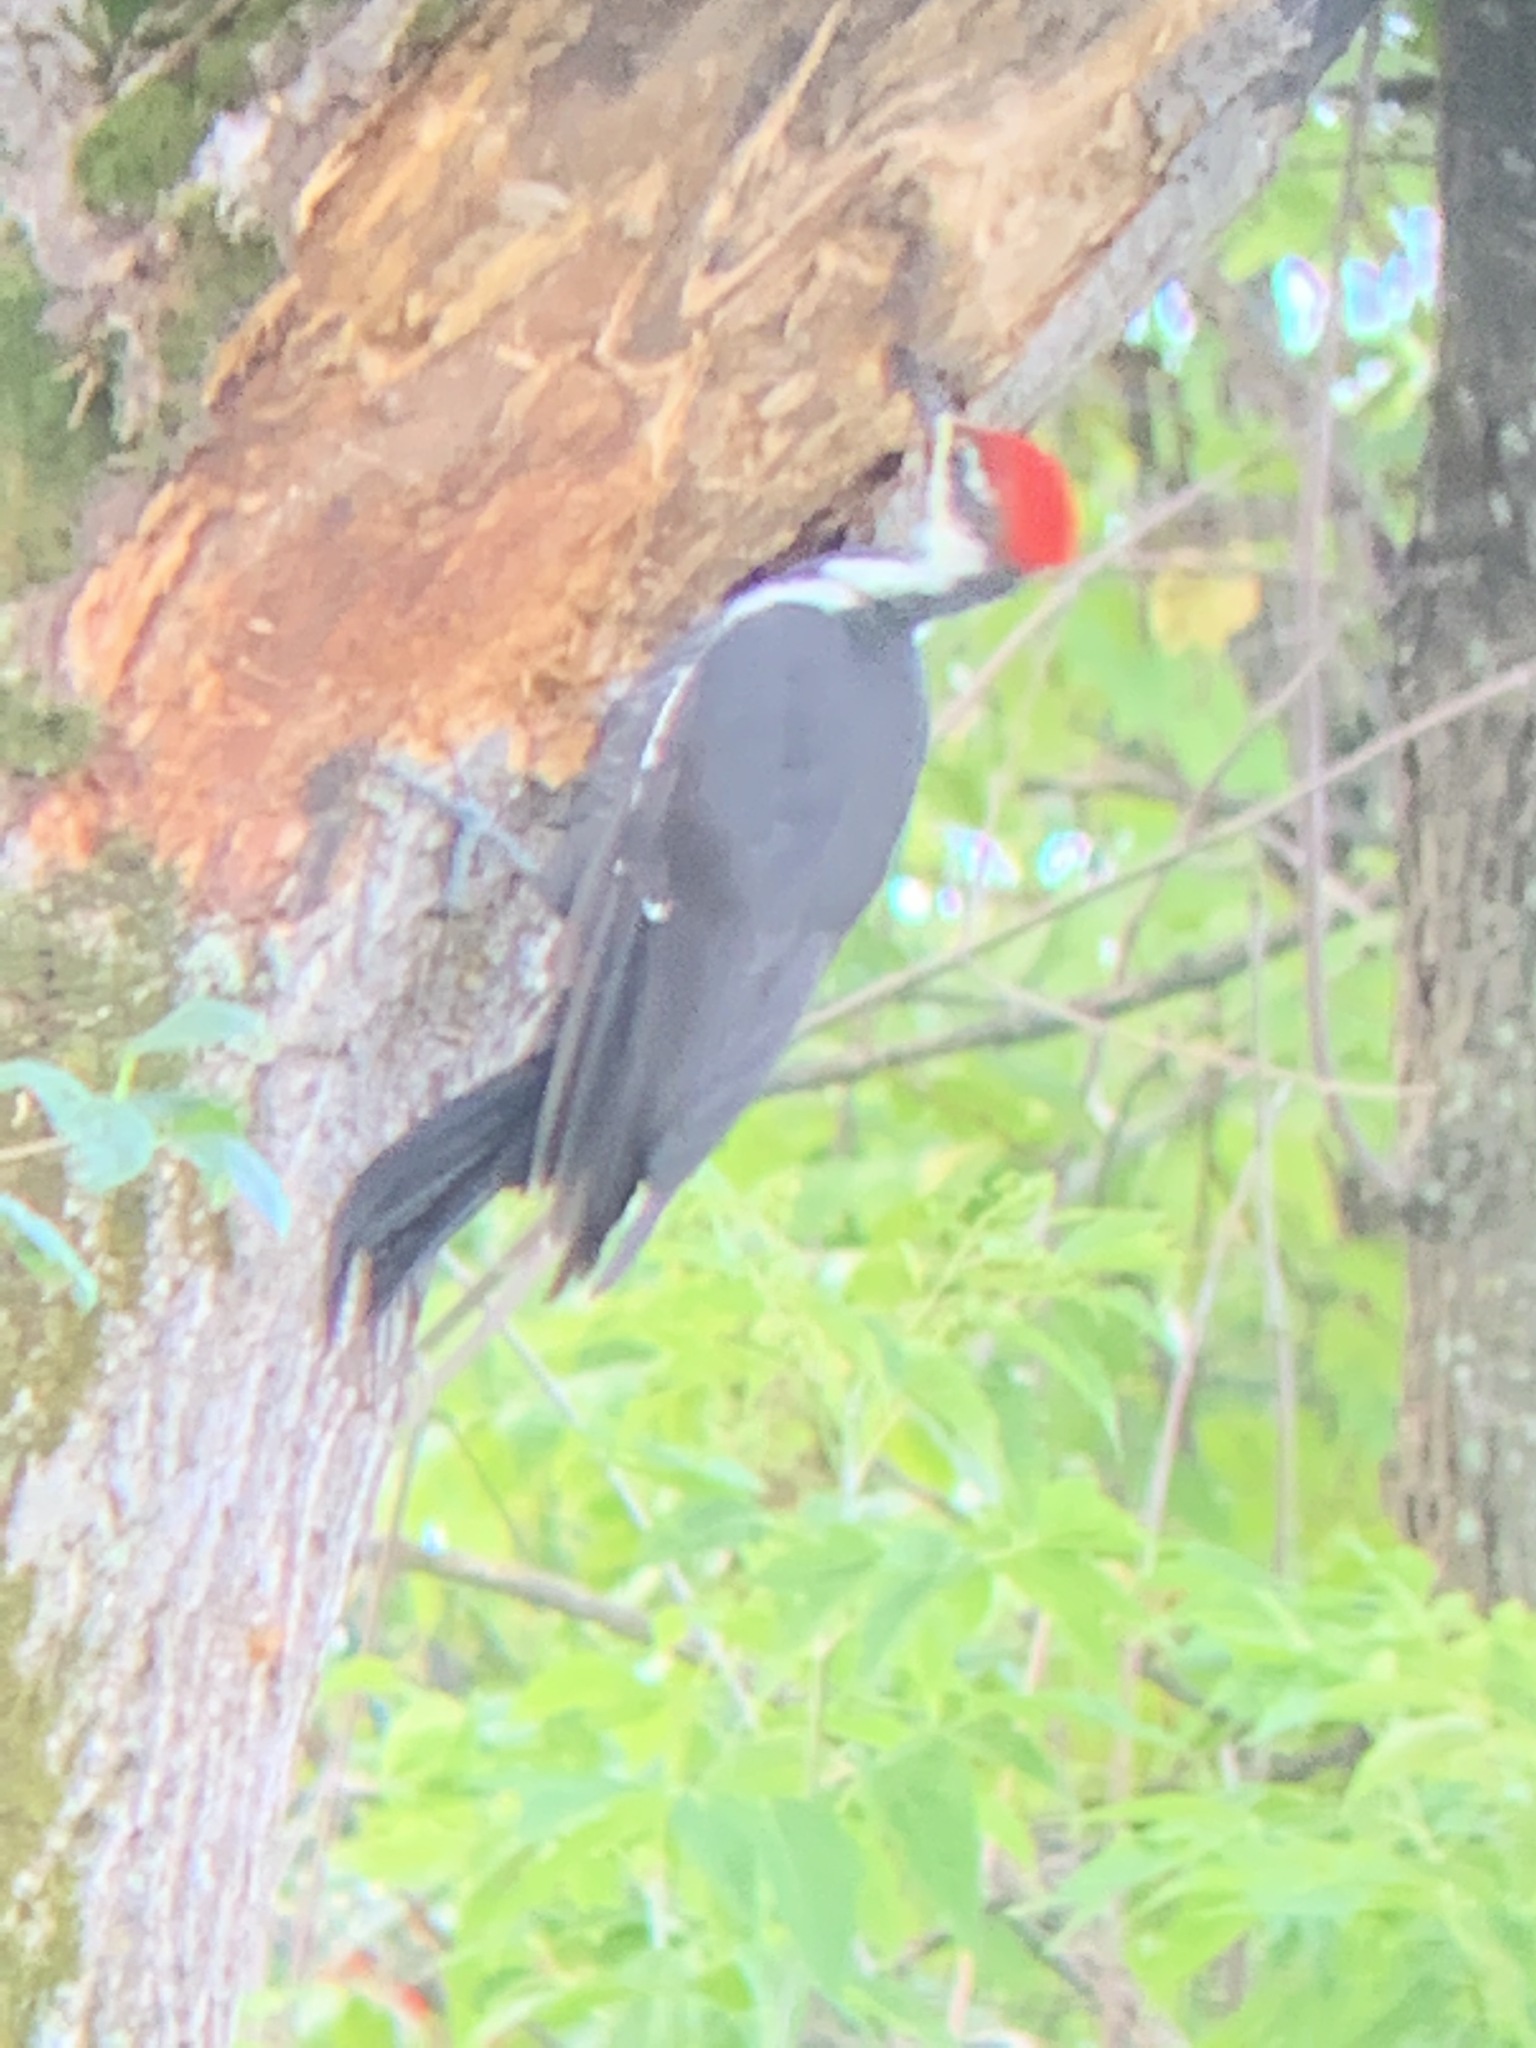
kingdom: Animalia
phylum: Chordata
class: Aves
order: Piciformes
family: Picidae
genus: Dryocopus
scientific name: Dryocopus pileatus
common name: Pileated woodpecker
